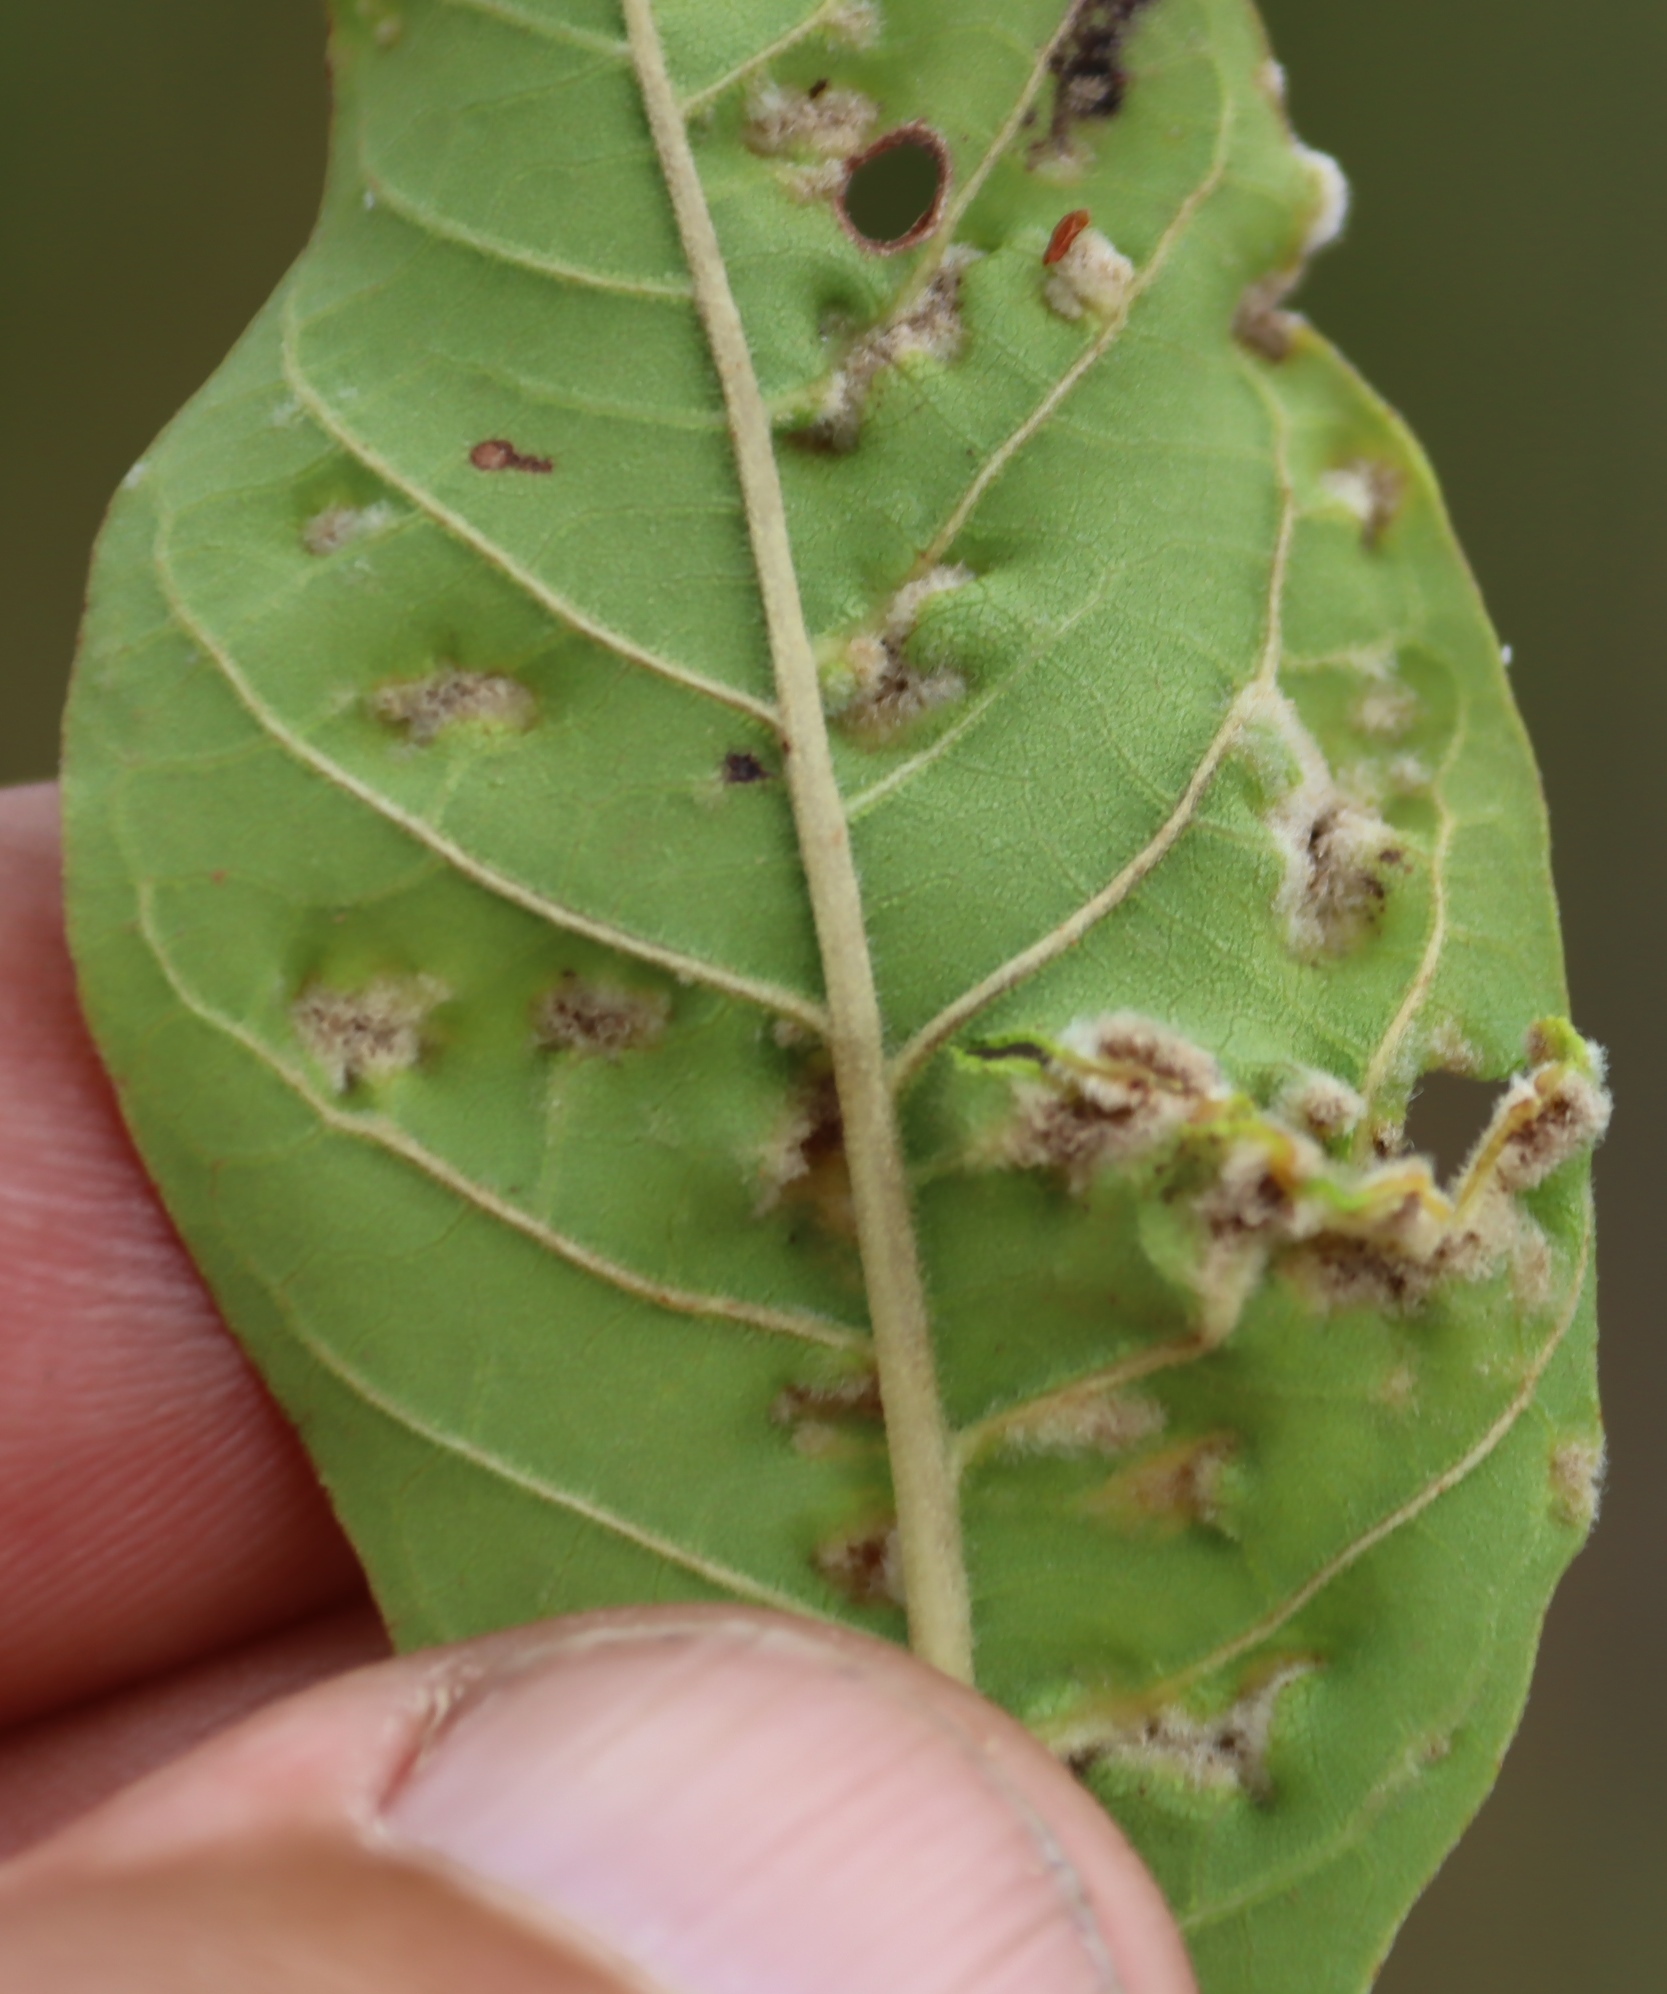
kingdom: Plantae
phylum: Tracheophyta
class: Magnoliopsida
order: Lamiales
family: Lamiaceae
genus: Vitex
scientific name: Vitex obovata
